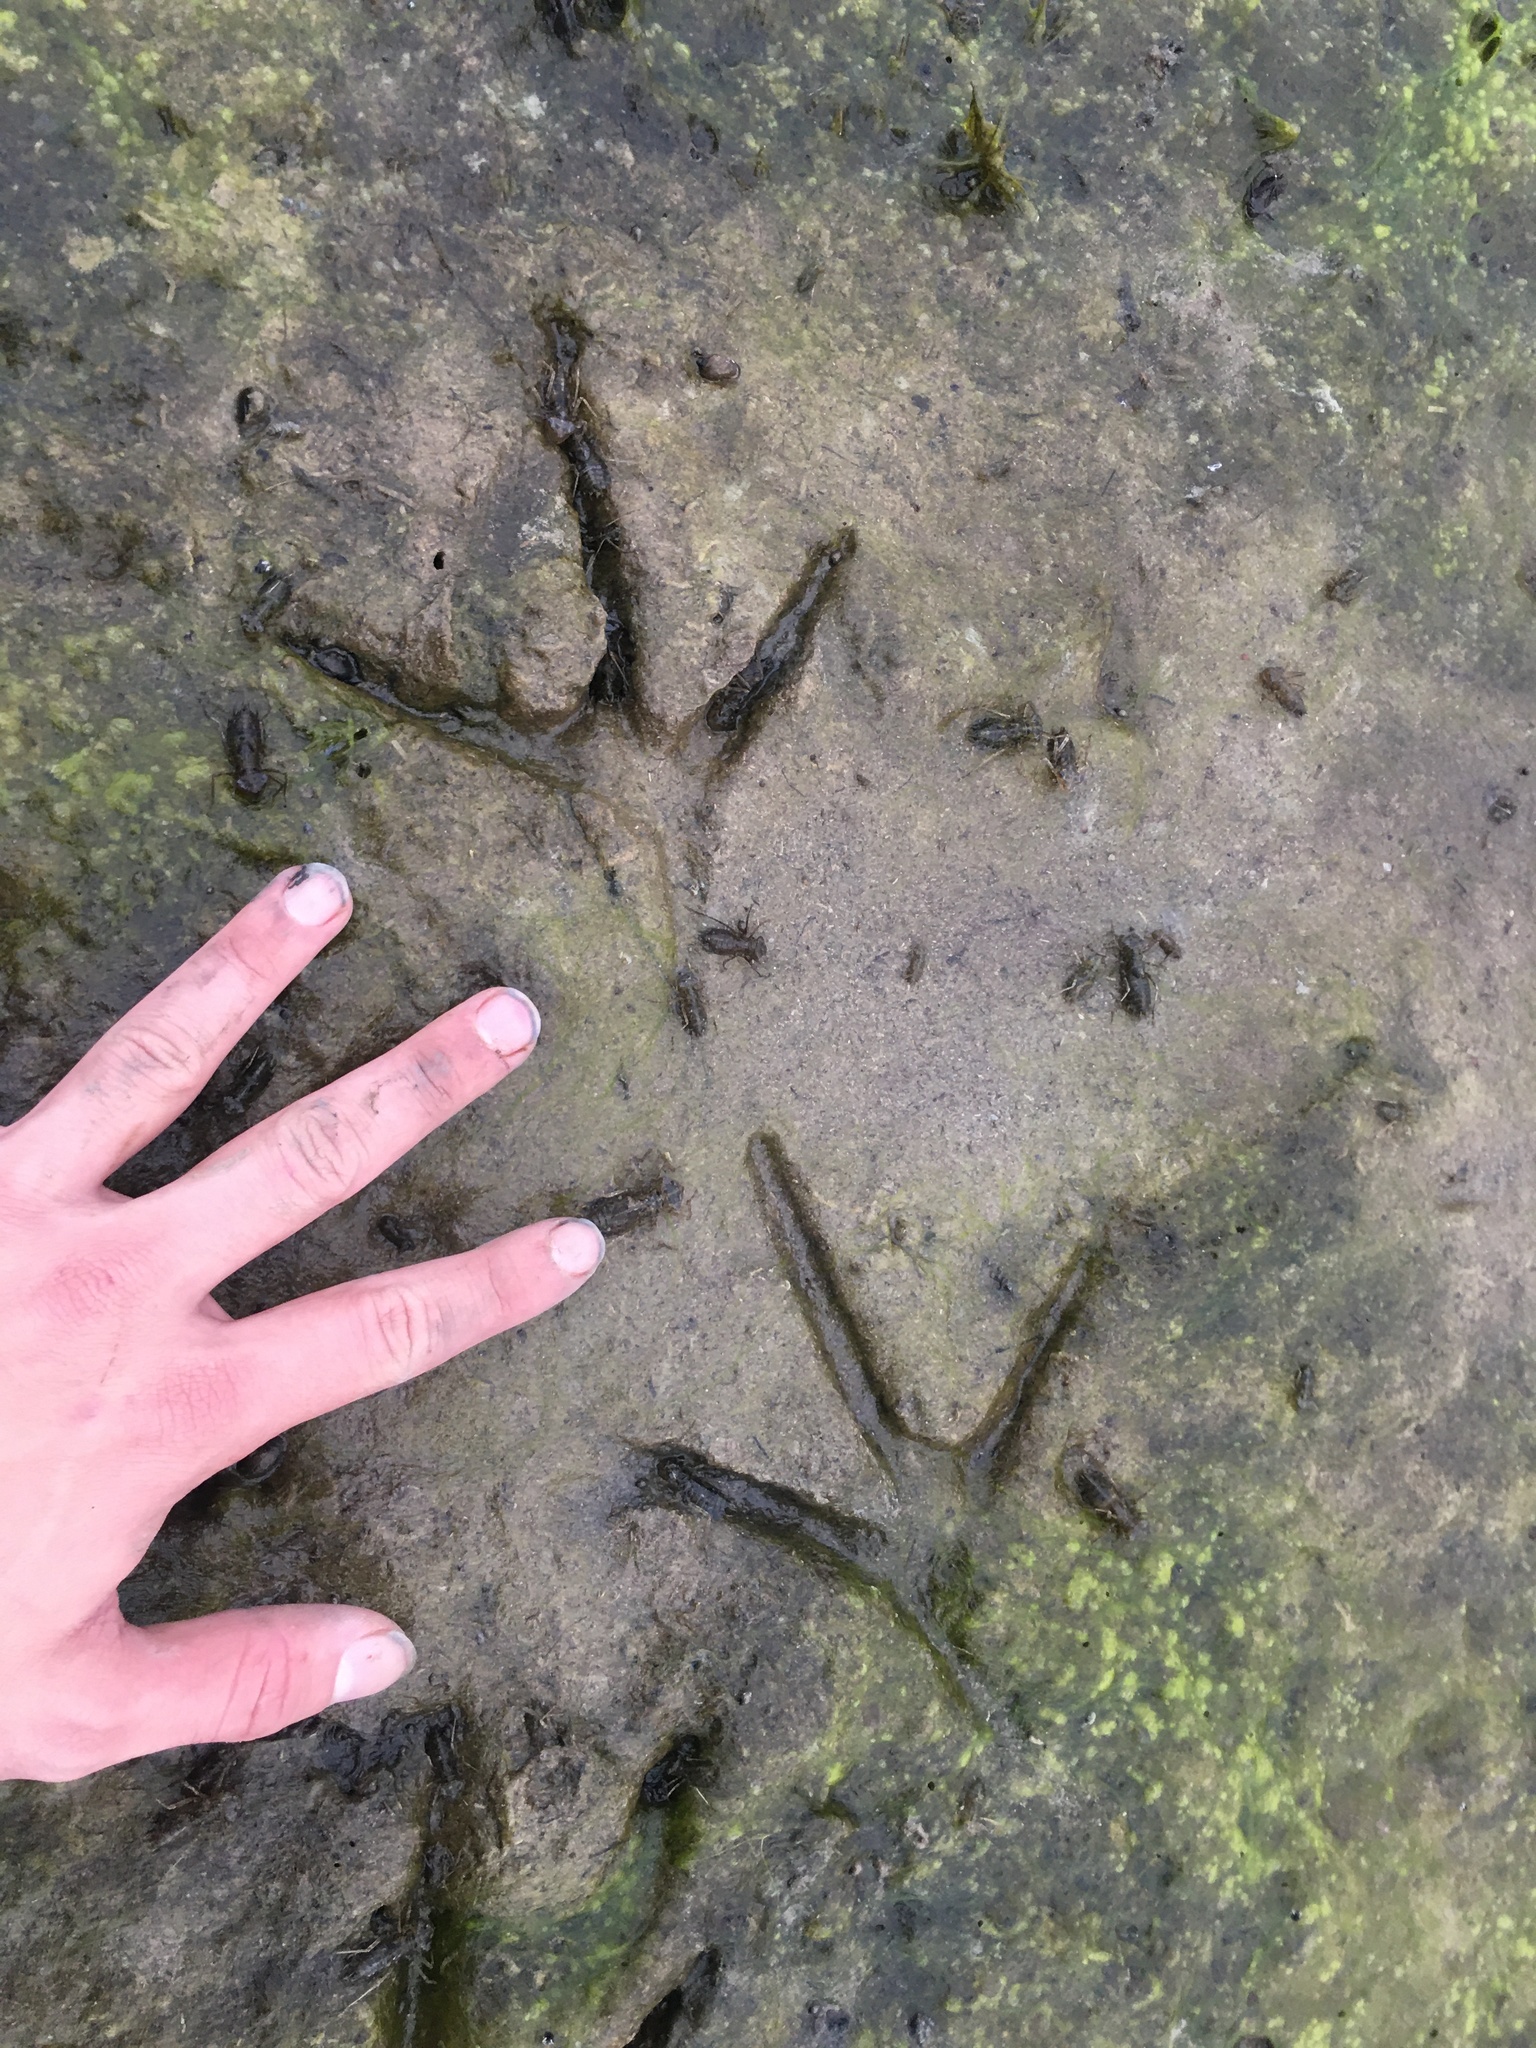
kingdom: Animalia
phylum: Chordata
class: Aves
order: Pelecaniformes
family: Ardeidae
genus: Ardea
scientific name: Ardea herodias
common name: Great blue heron
